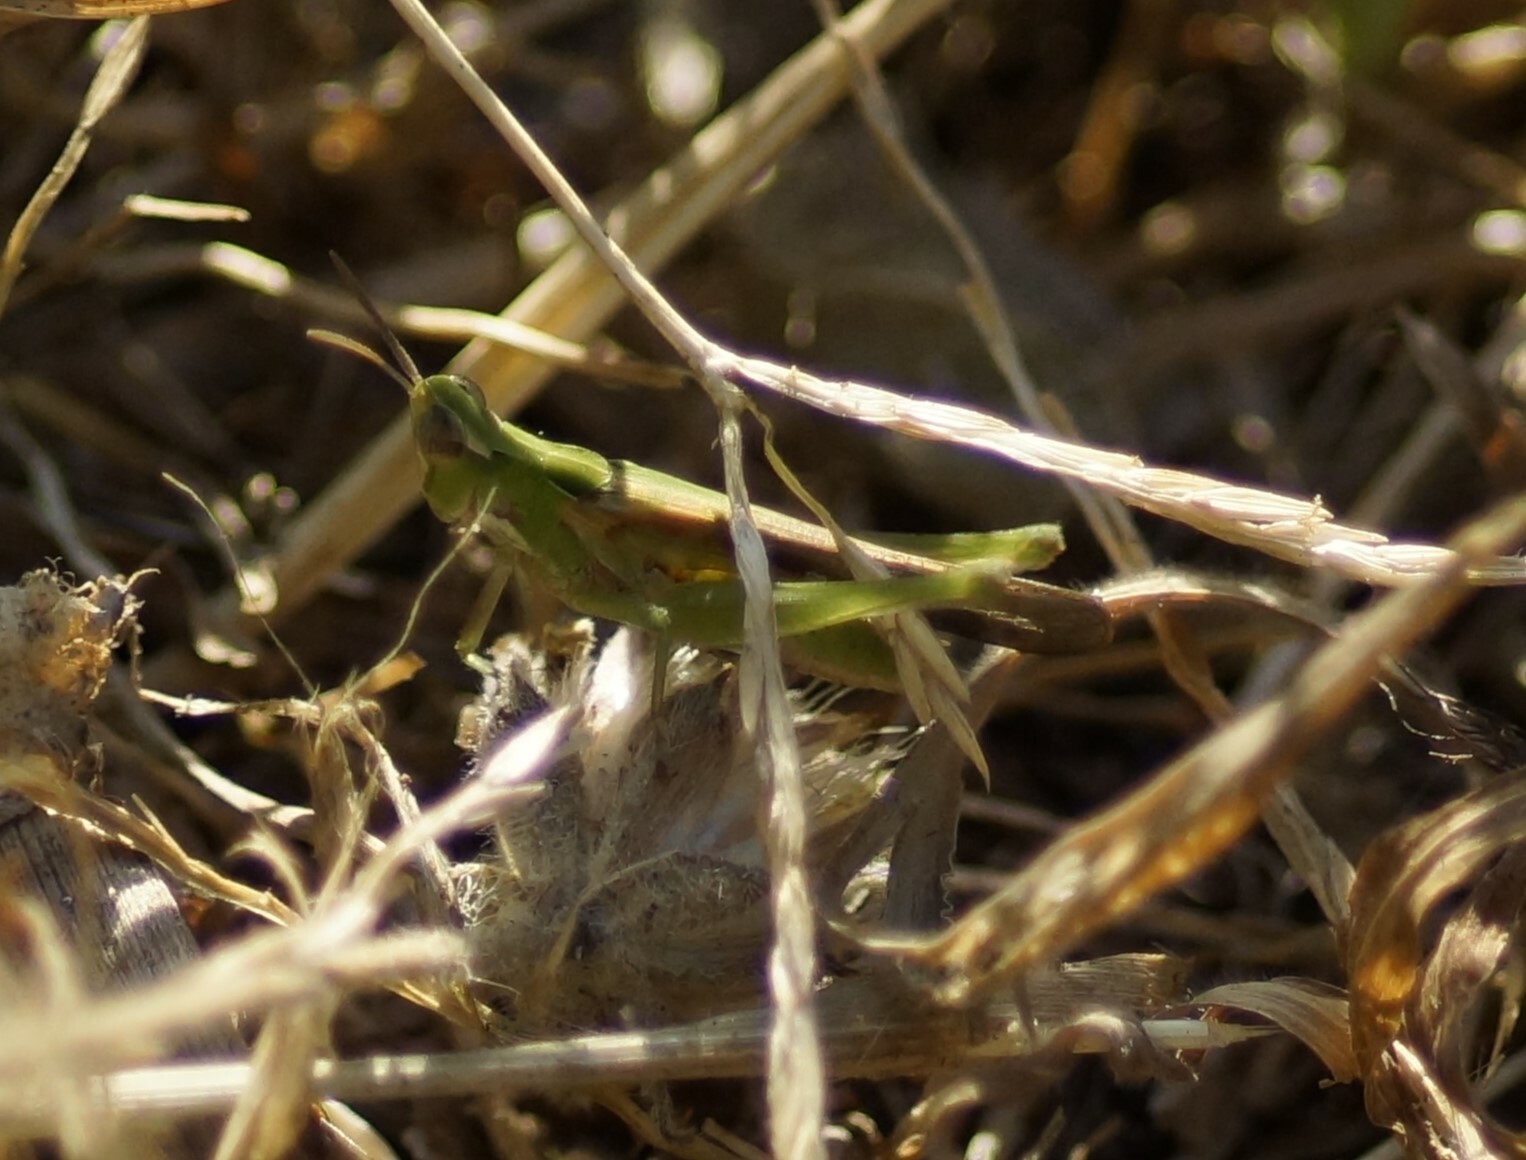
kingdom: Animalia
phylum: Arthropoda
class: Insecta
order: Orthoptera
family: Acrididae
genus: Calephorops
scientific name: Calephorops viridis
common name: Calephorops
